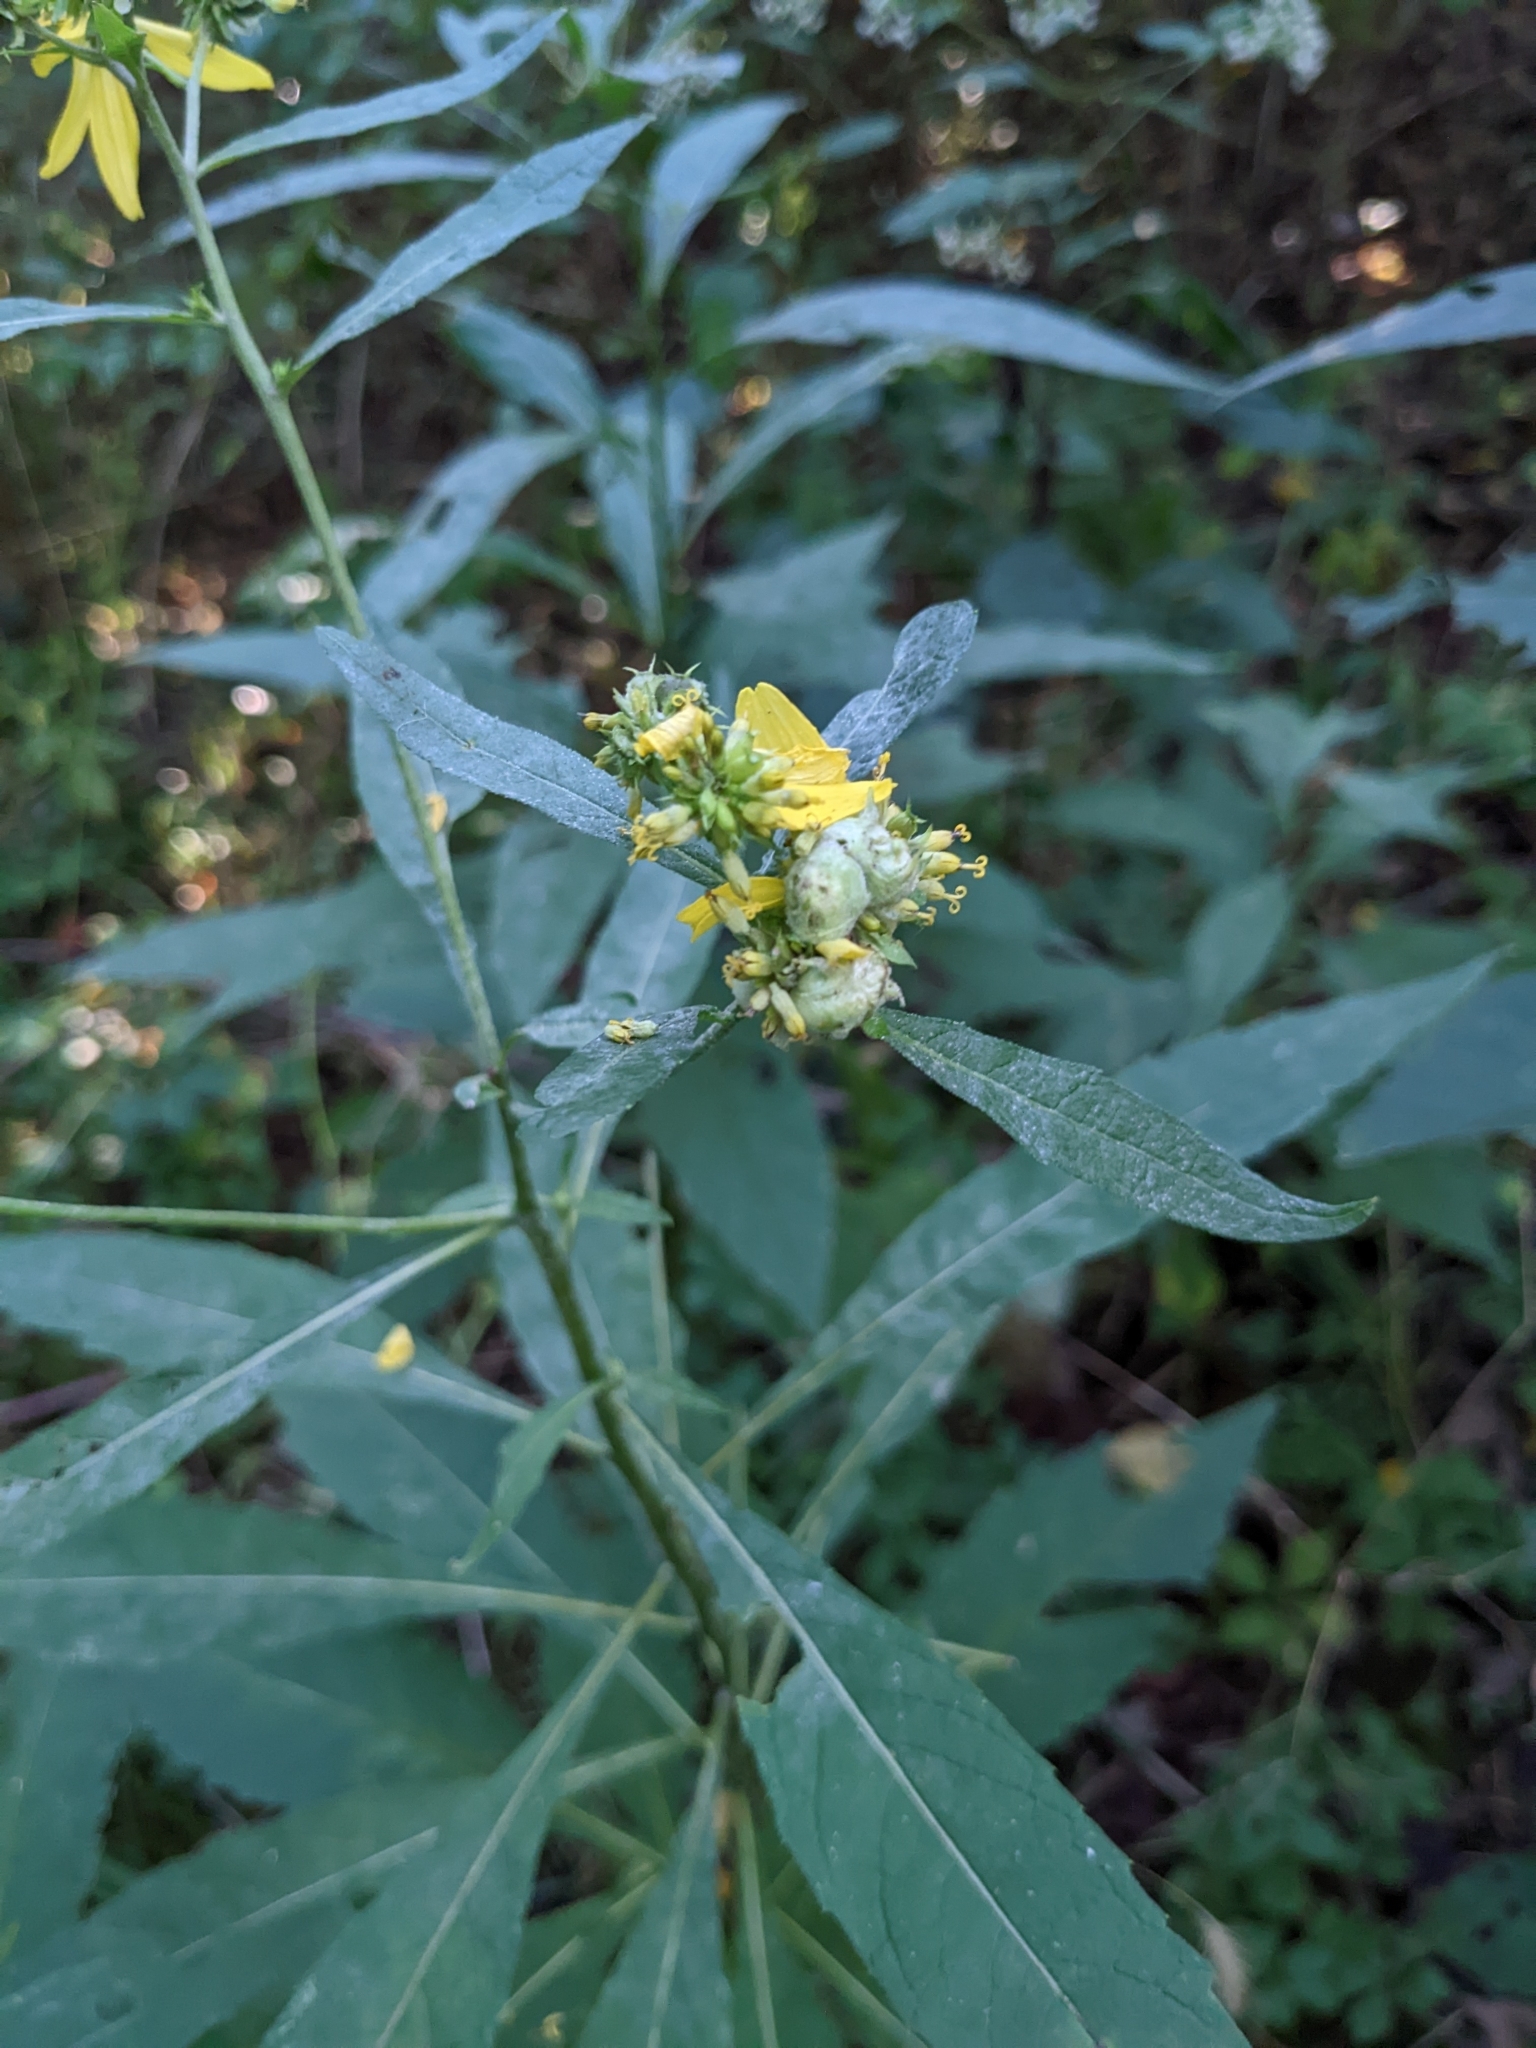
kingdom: Animalia
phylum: Arthropoda
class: Insecta
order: Diptera
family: Cecidomyiidae
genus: Schizomyia
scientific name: Schizomyia
